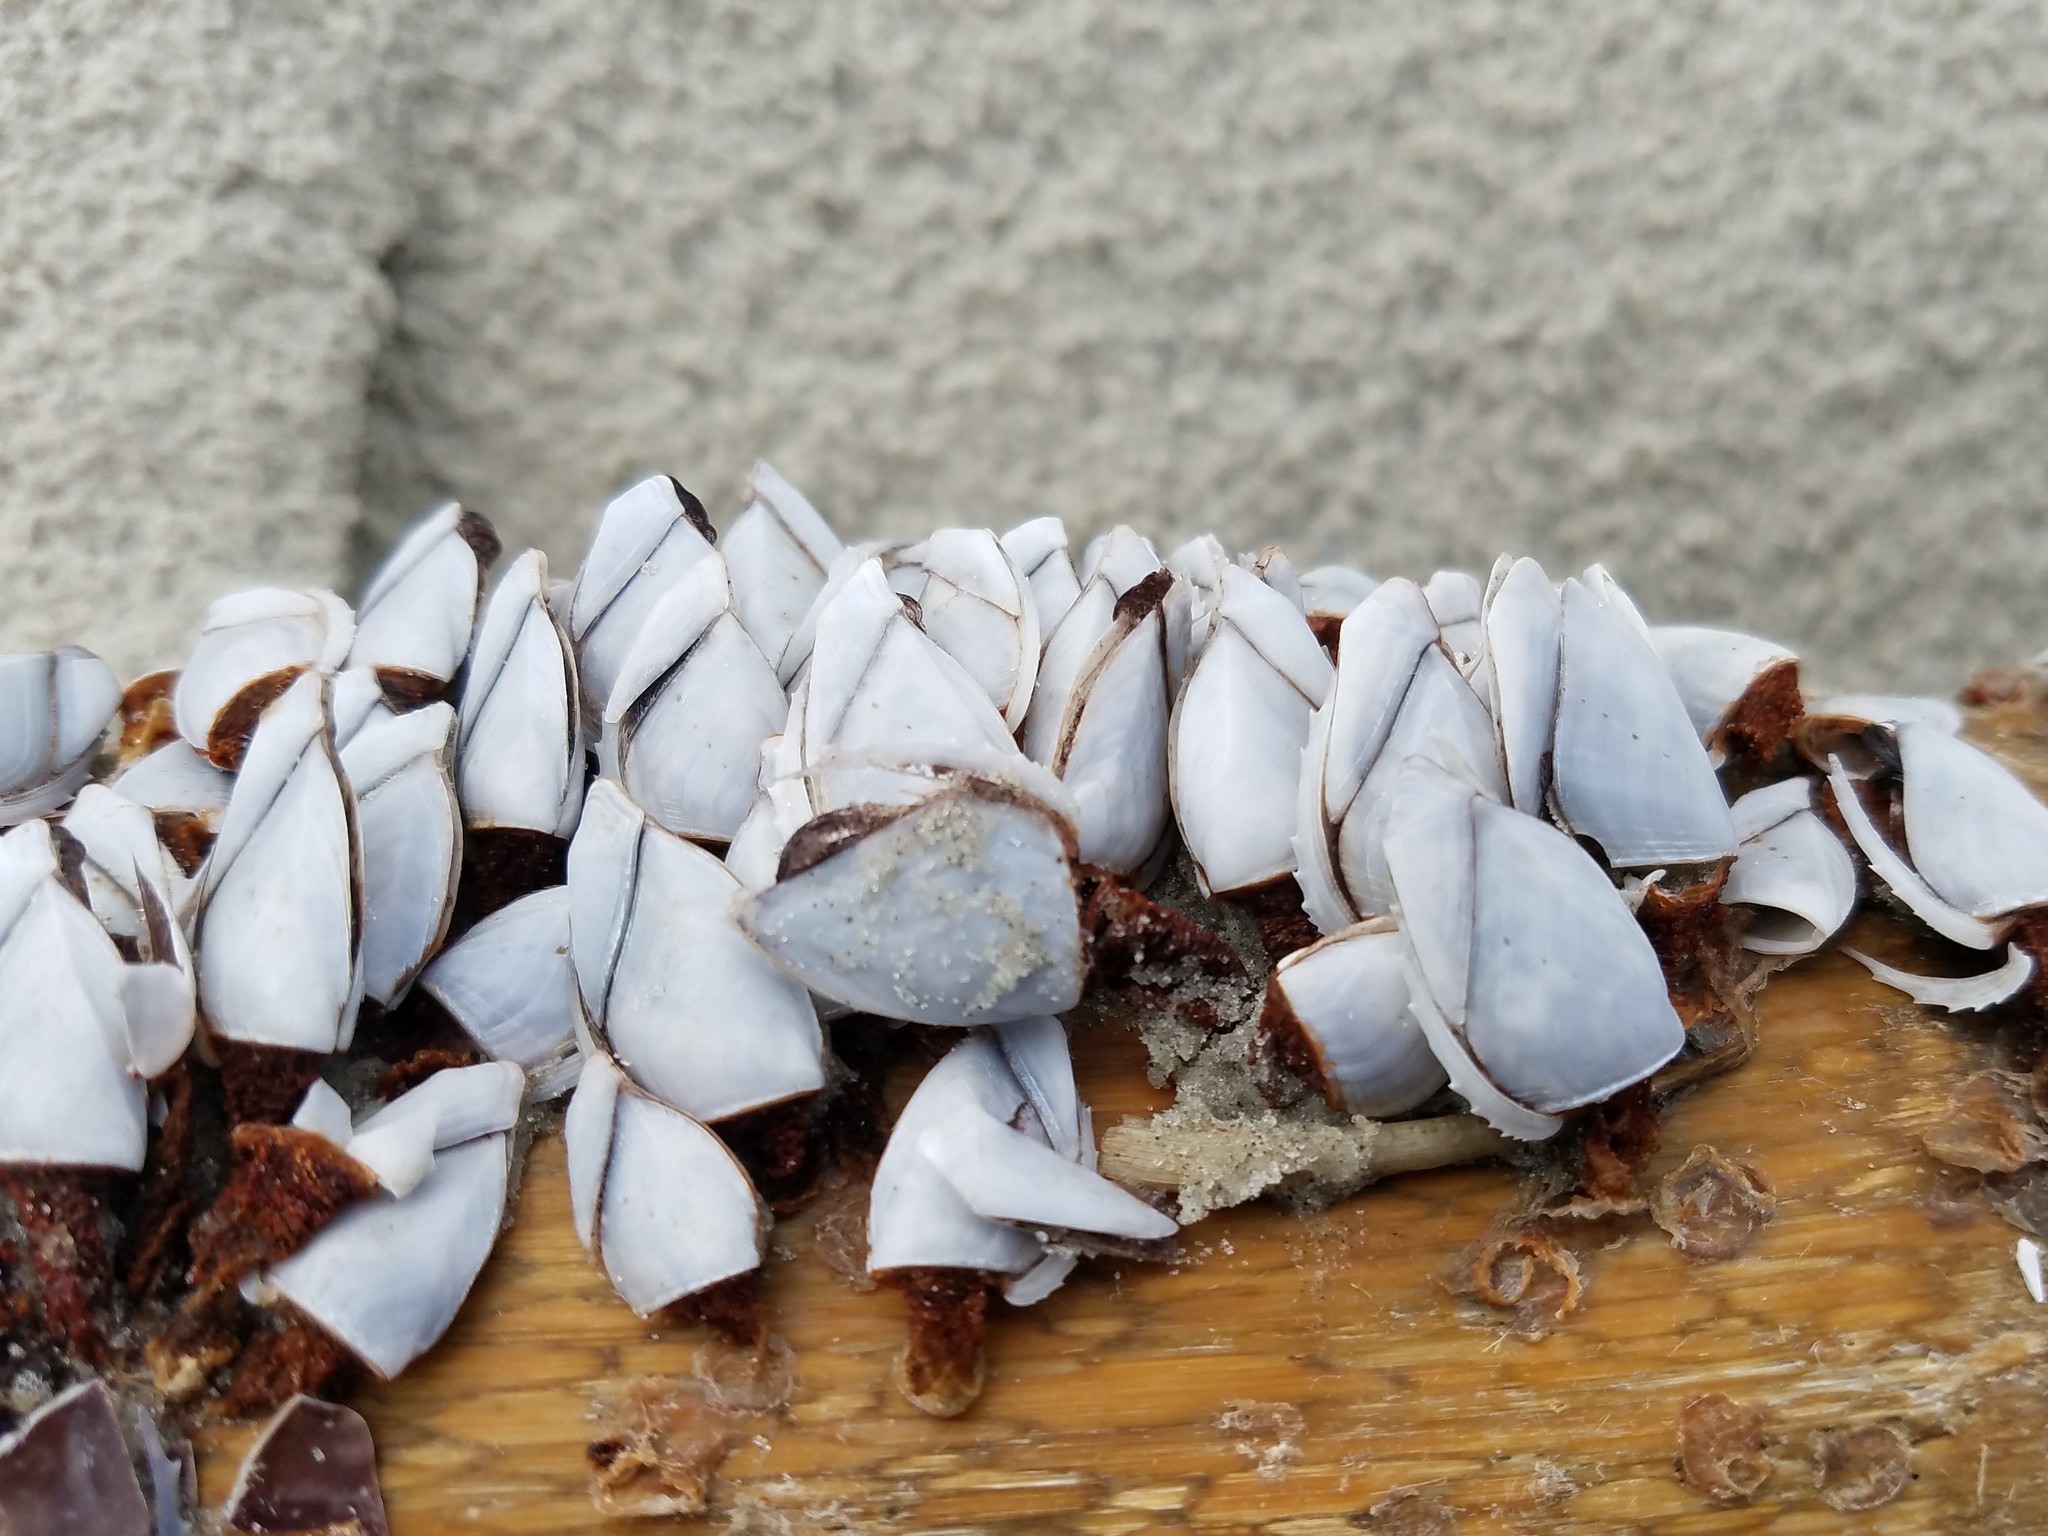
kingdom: Animalia
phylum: Arthropoda
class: Maxillopoda
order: Pedunculata
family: Lepadidae
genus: Lepas
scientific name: Lepas anatifera
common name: Common goose barnacle
